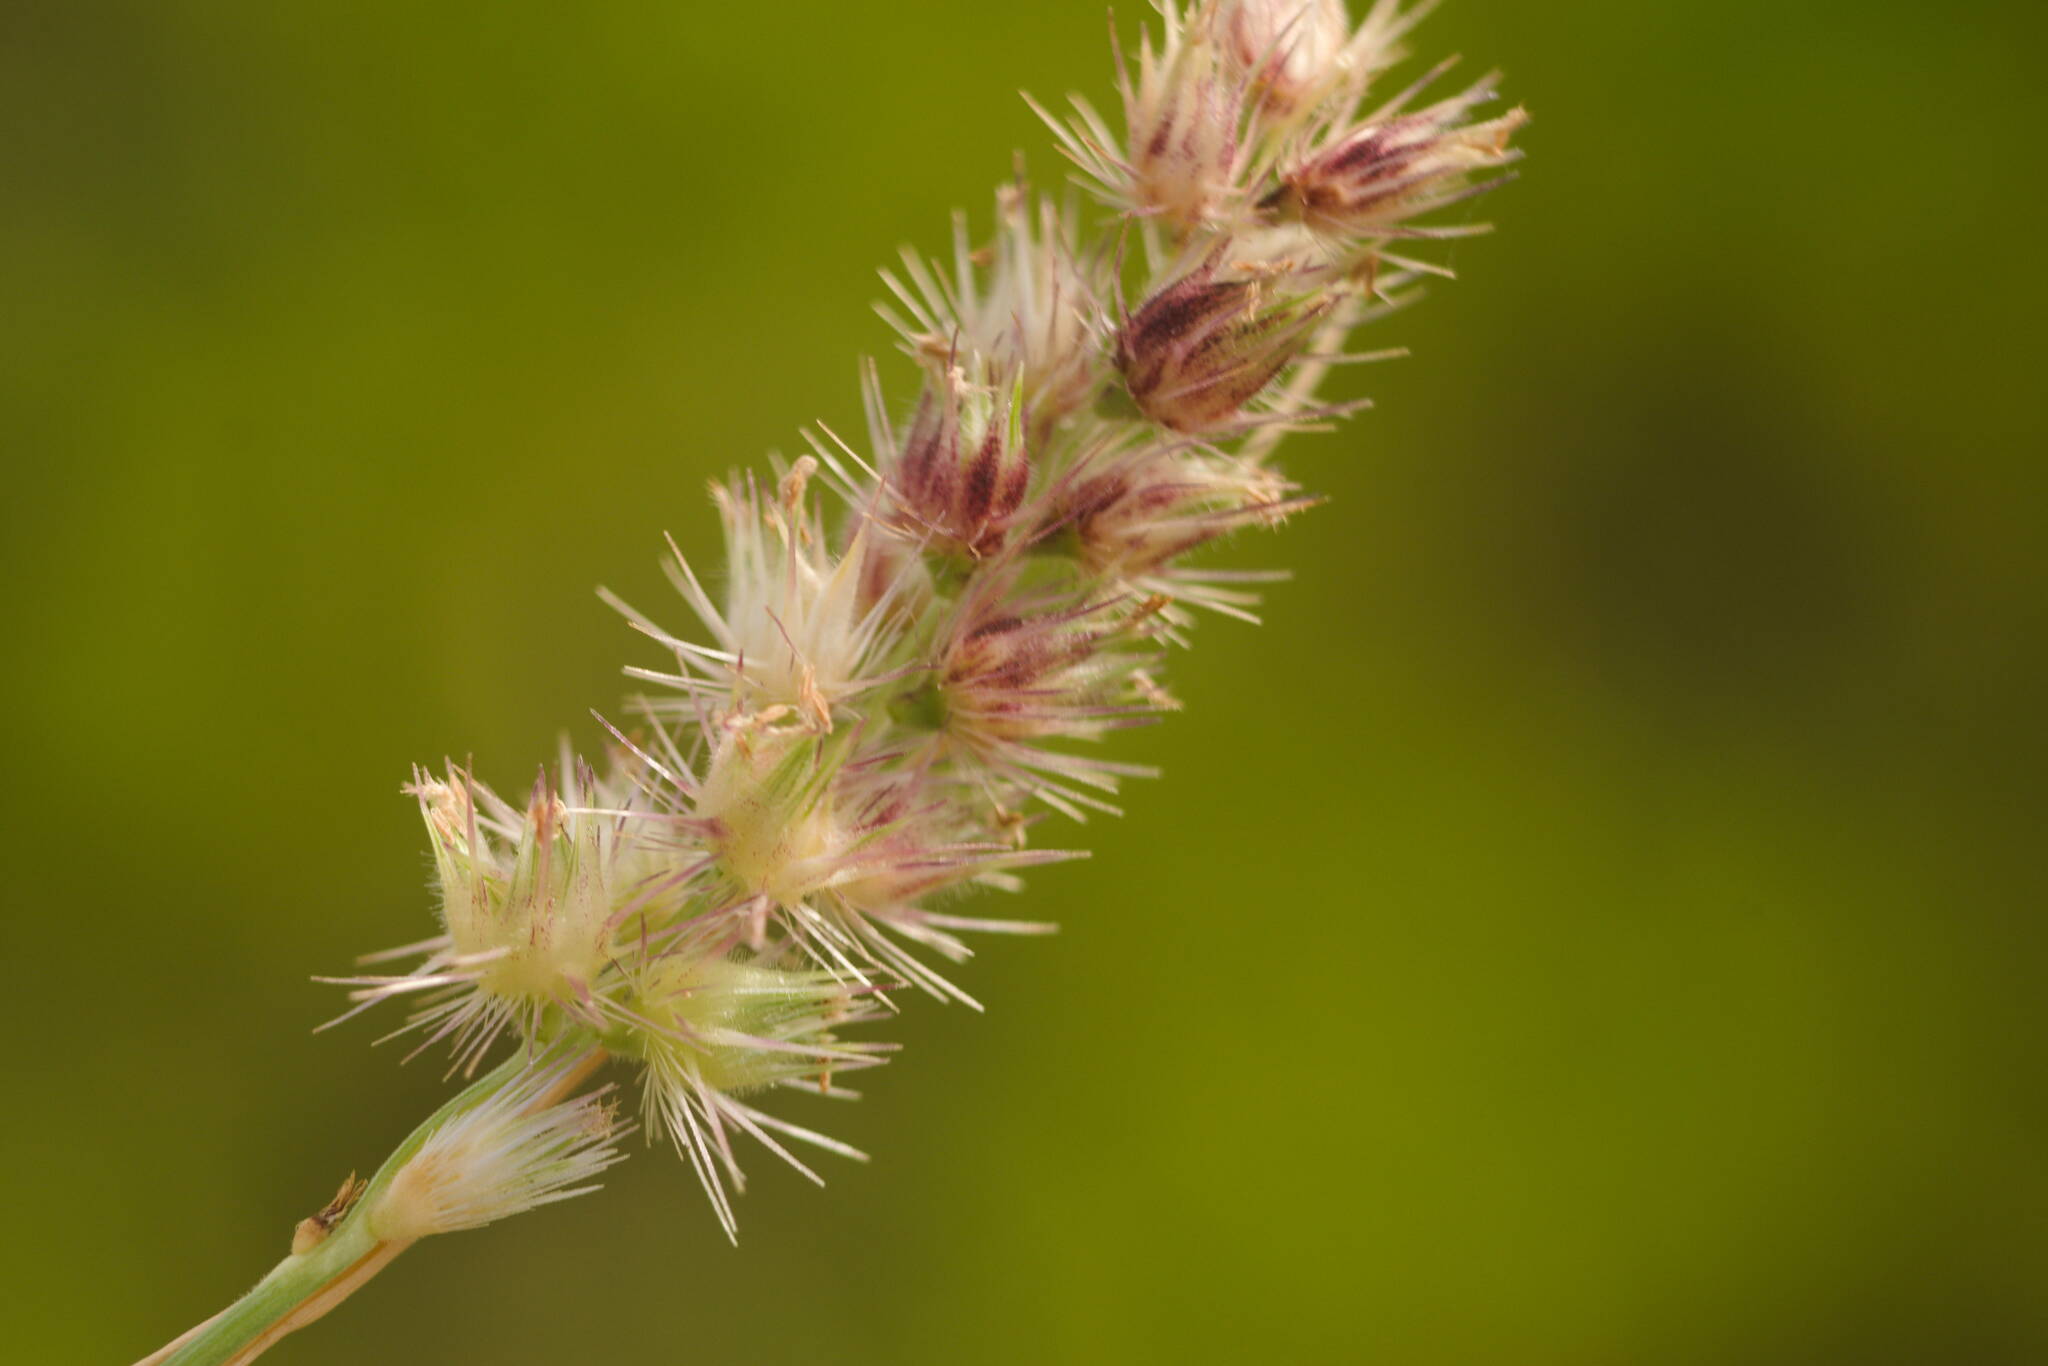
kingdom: Plantae
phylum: Tracheophyta
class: Liliopsida
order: Poales
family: Poaceae
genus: Cenchrus
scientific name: Cenchrus echinatus
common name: Southern sandbur
